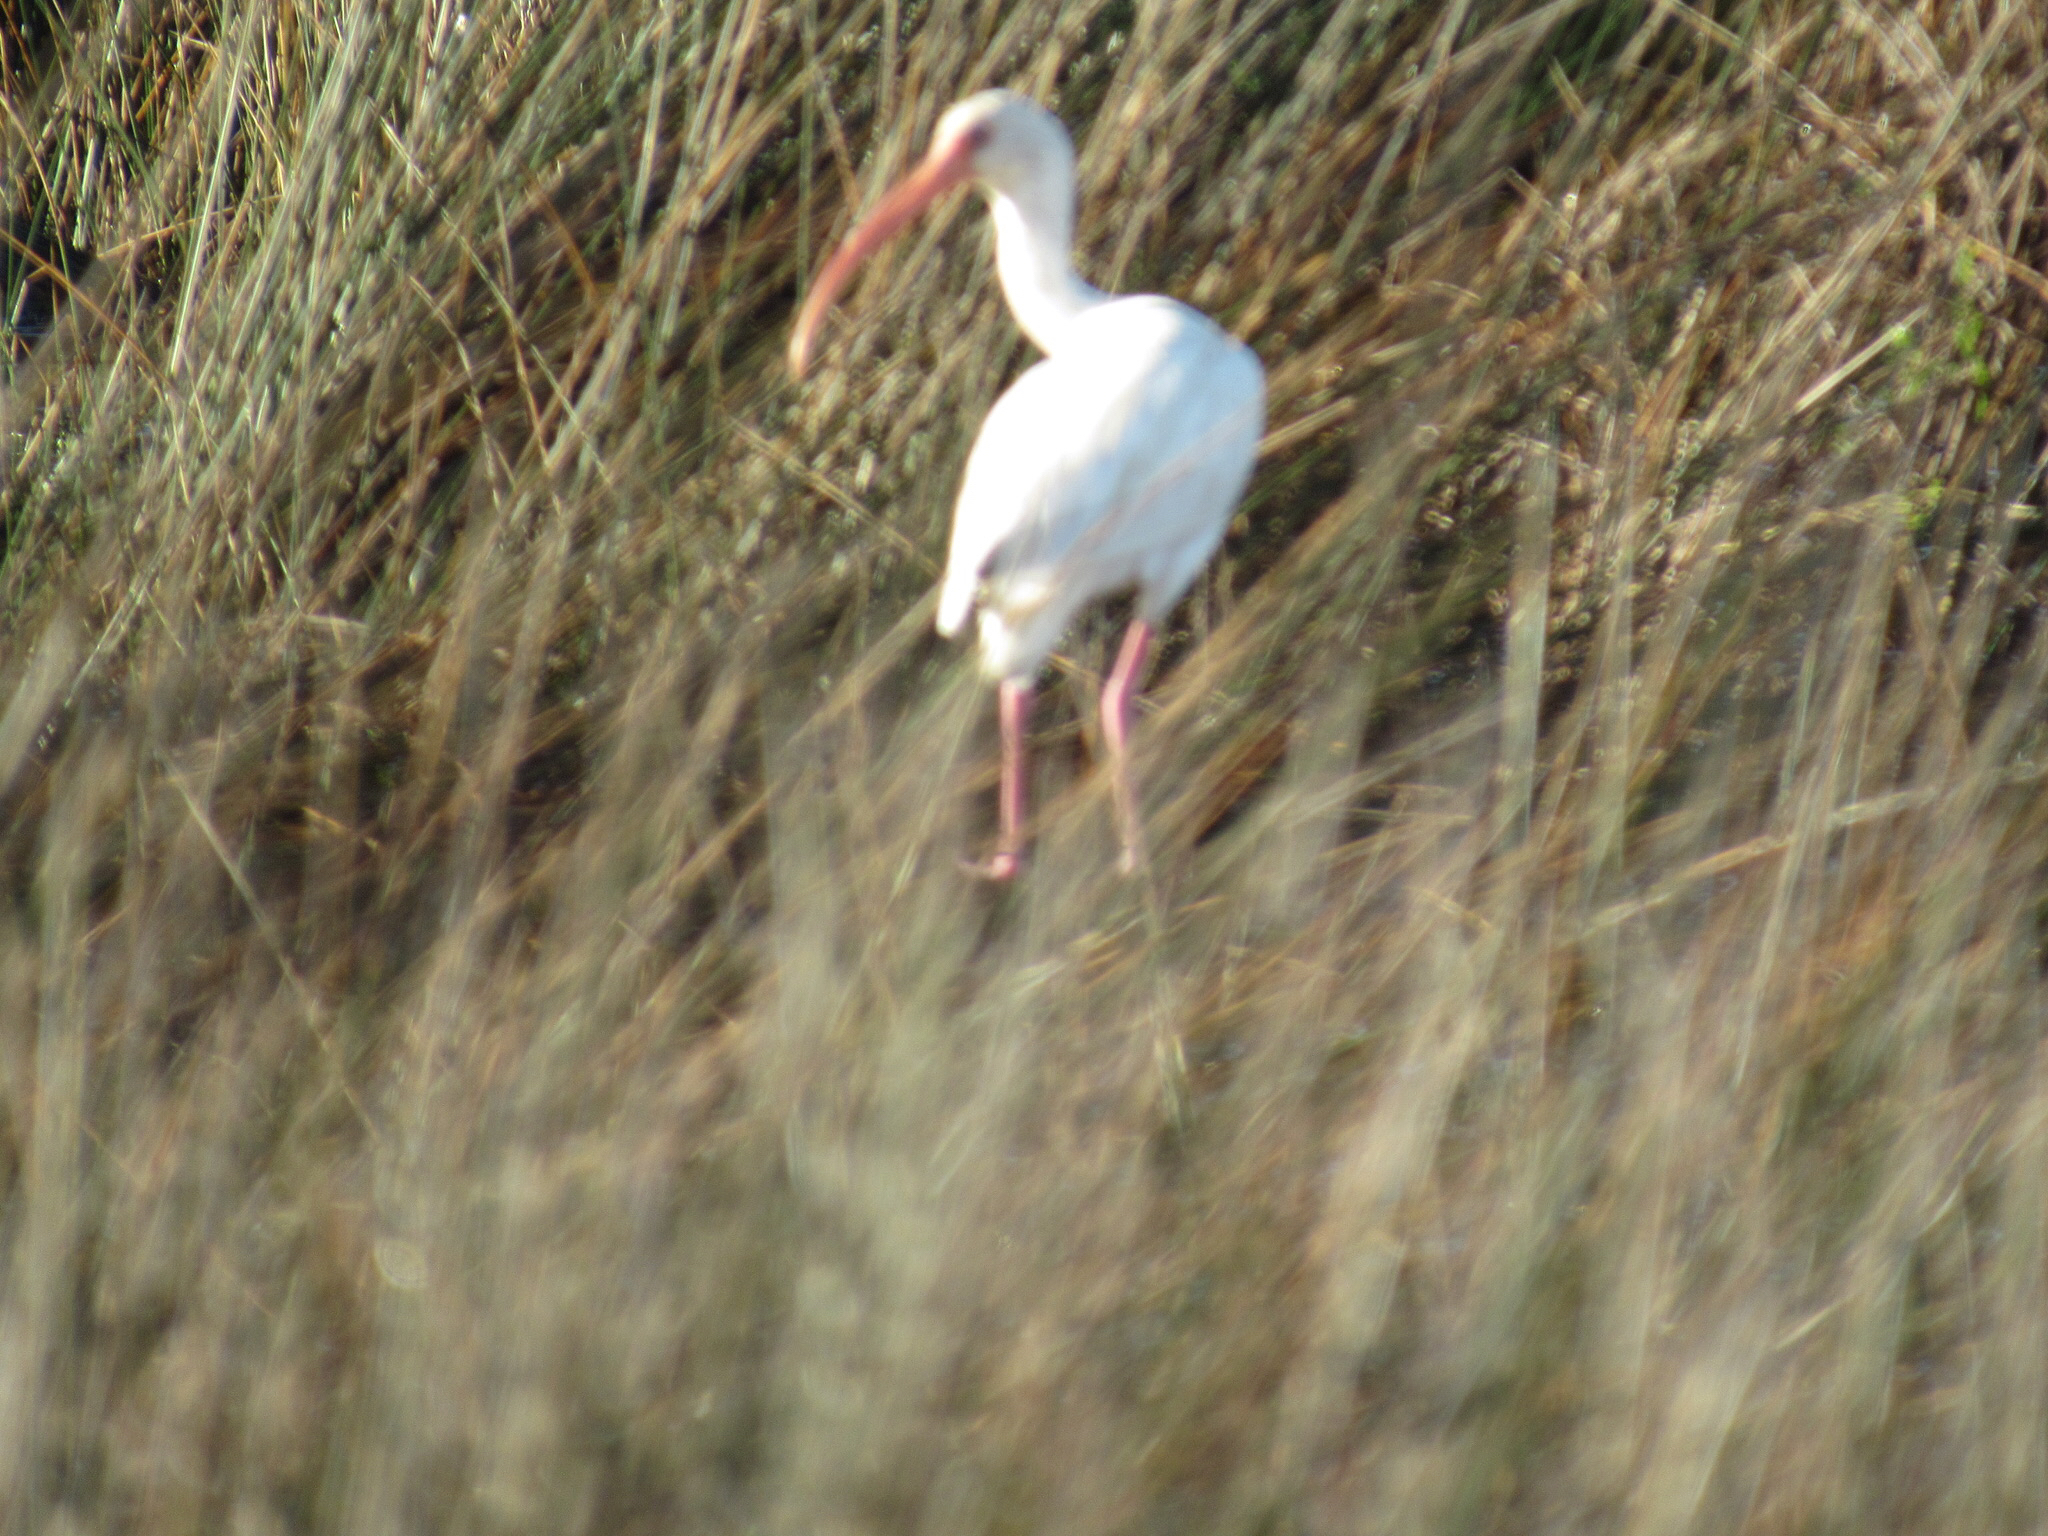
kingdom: Animalia
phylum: Chordata
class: Aves
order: Pelecaniformes
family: Threskiornithidae
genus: Eudocimus
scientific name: Eudocimus albus
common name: White ibis
